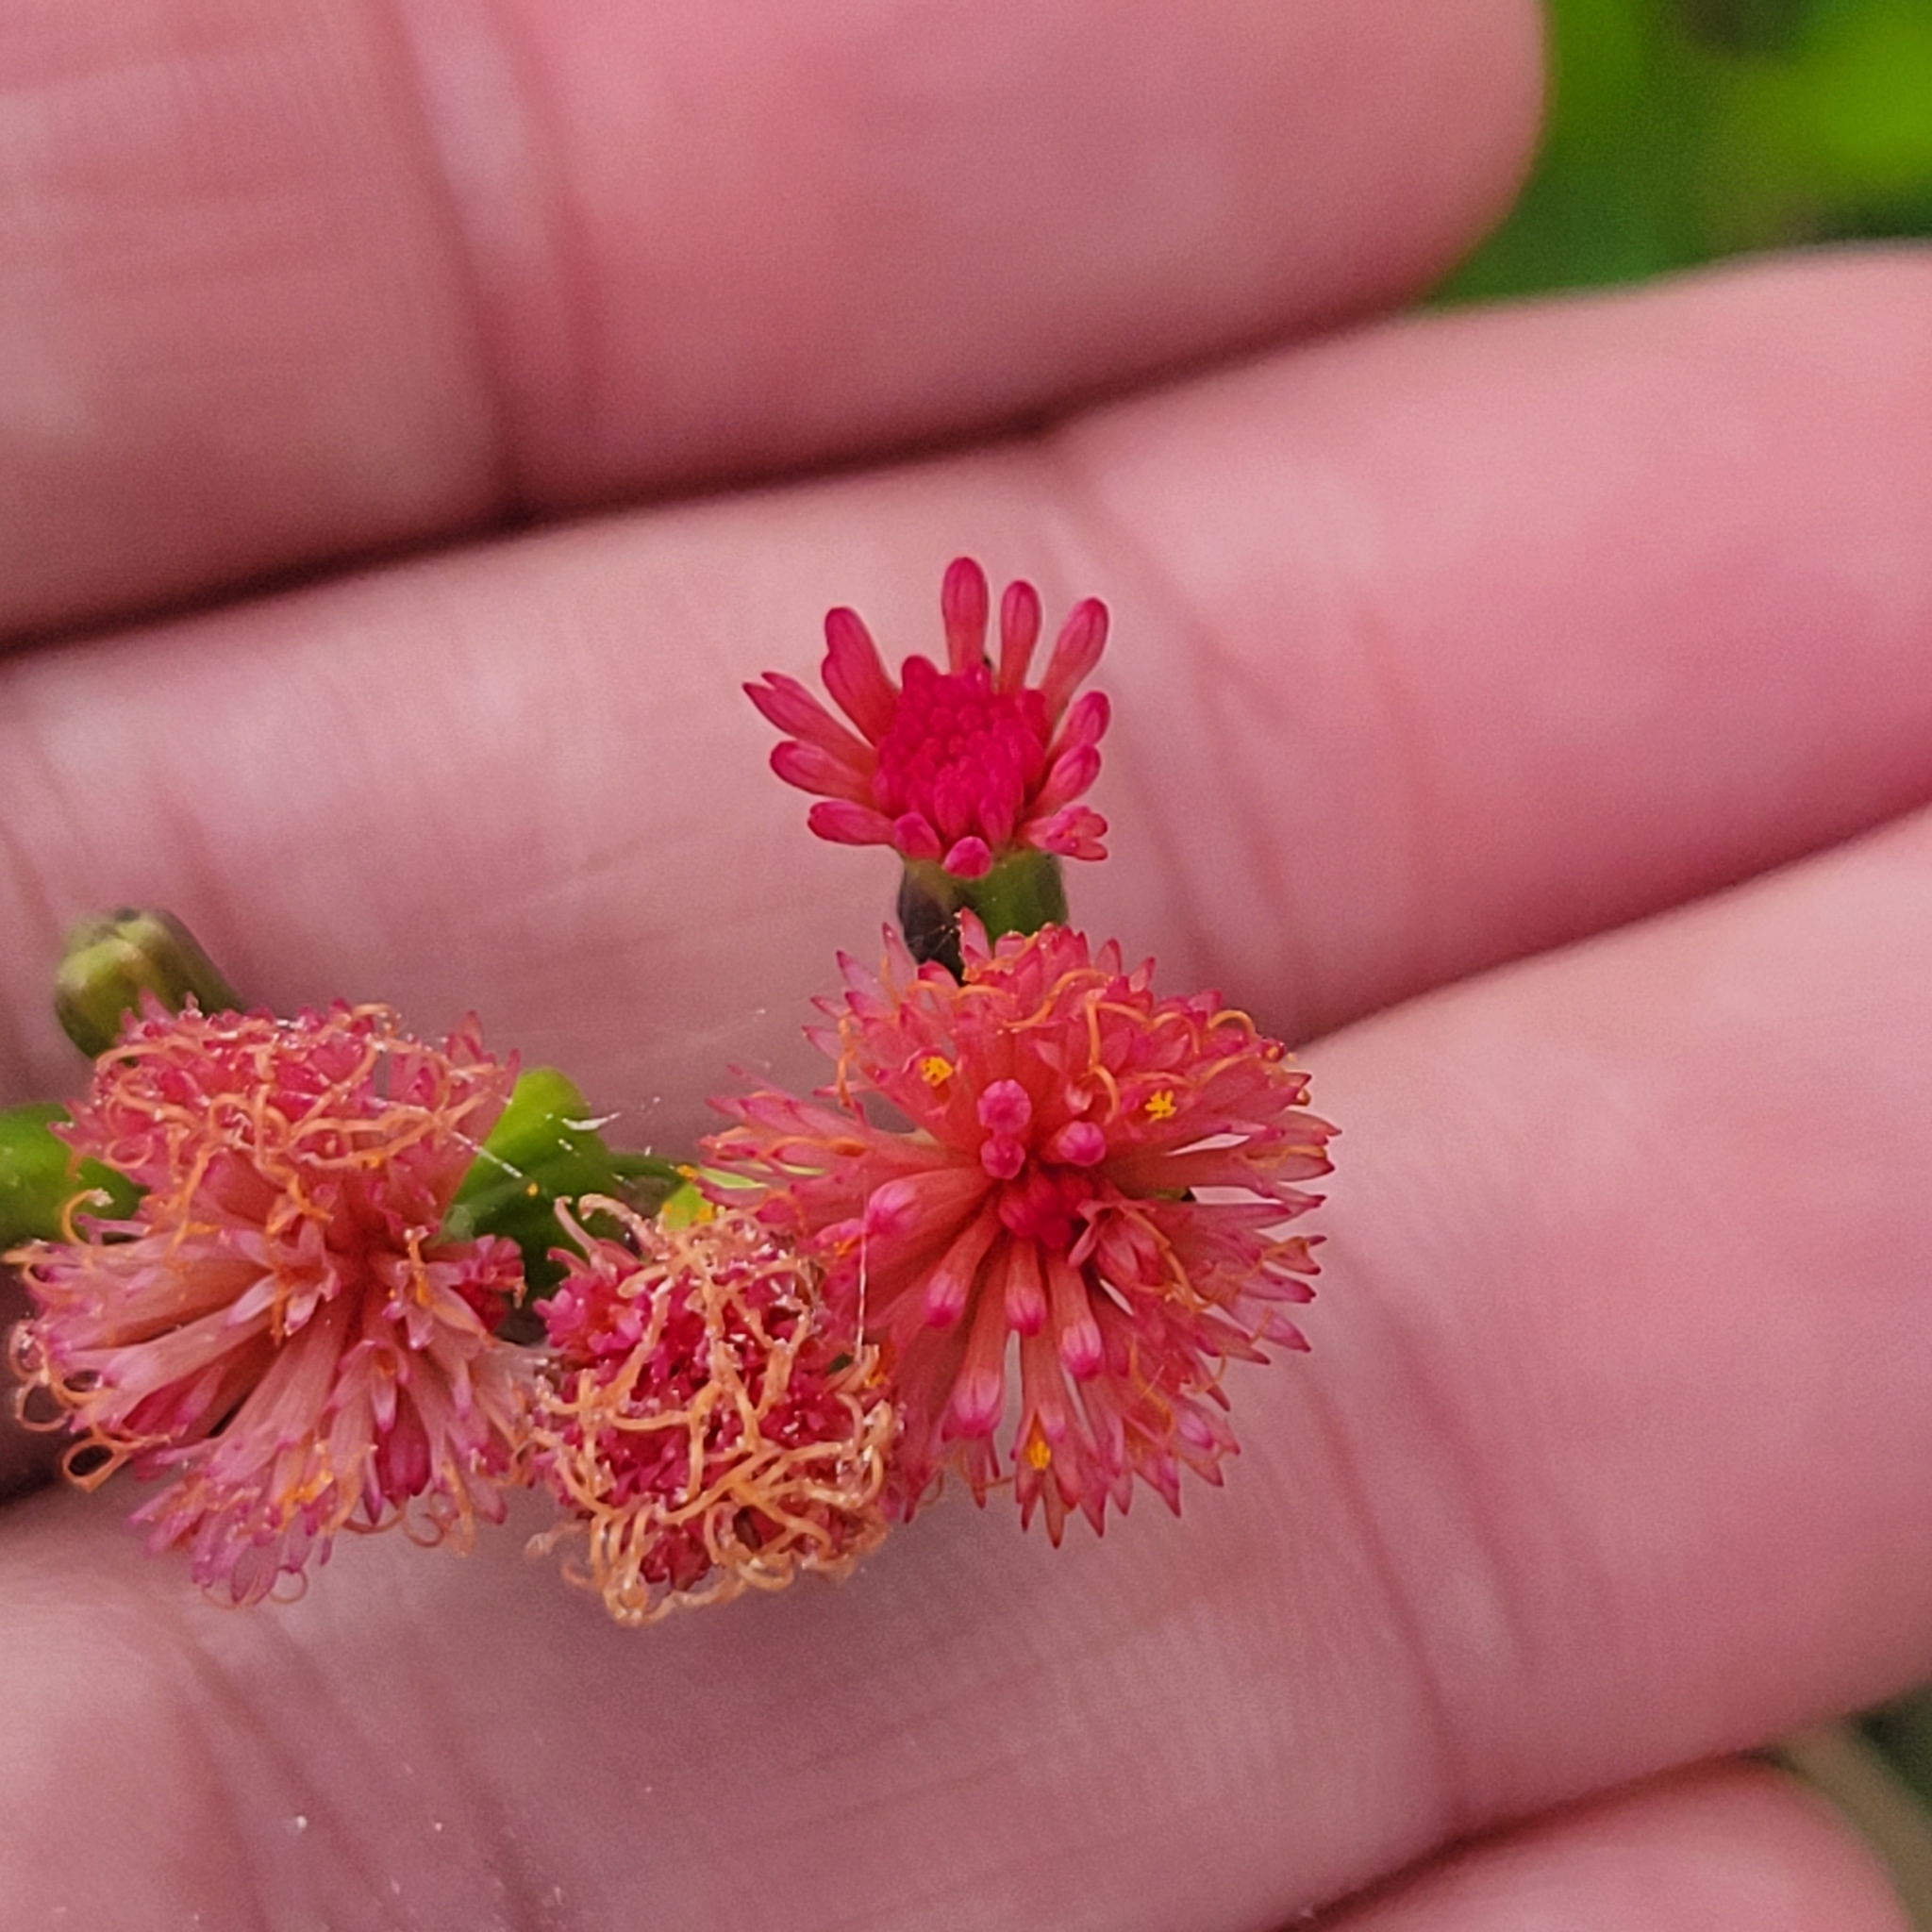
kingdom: Plantae
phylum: Tracheophyta
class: Magnoliopsida
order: Asterales
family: Asteraceae
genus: Emilia
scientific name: Emilia fosbergii
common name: Florida tasselflower
